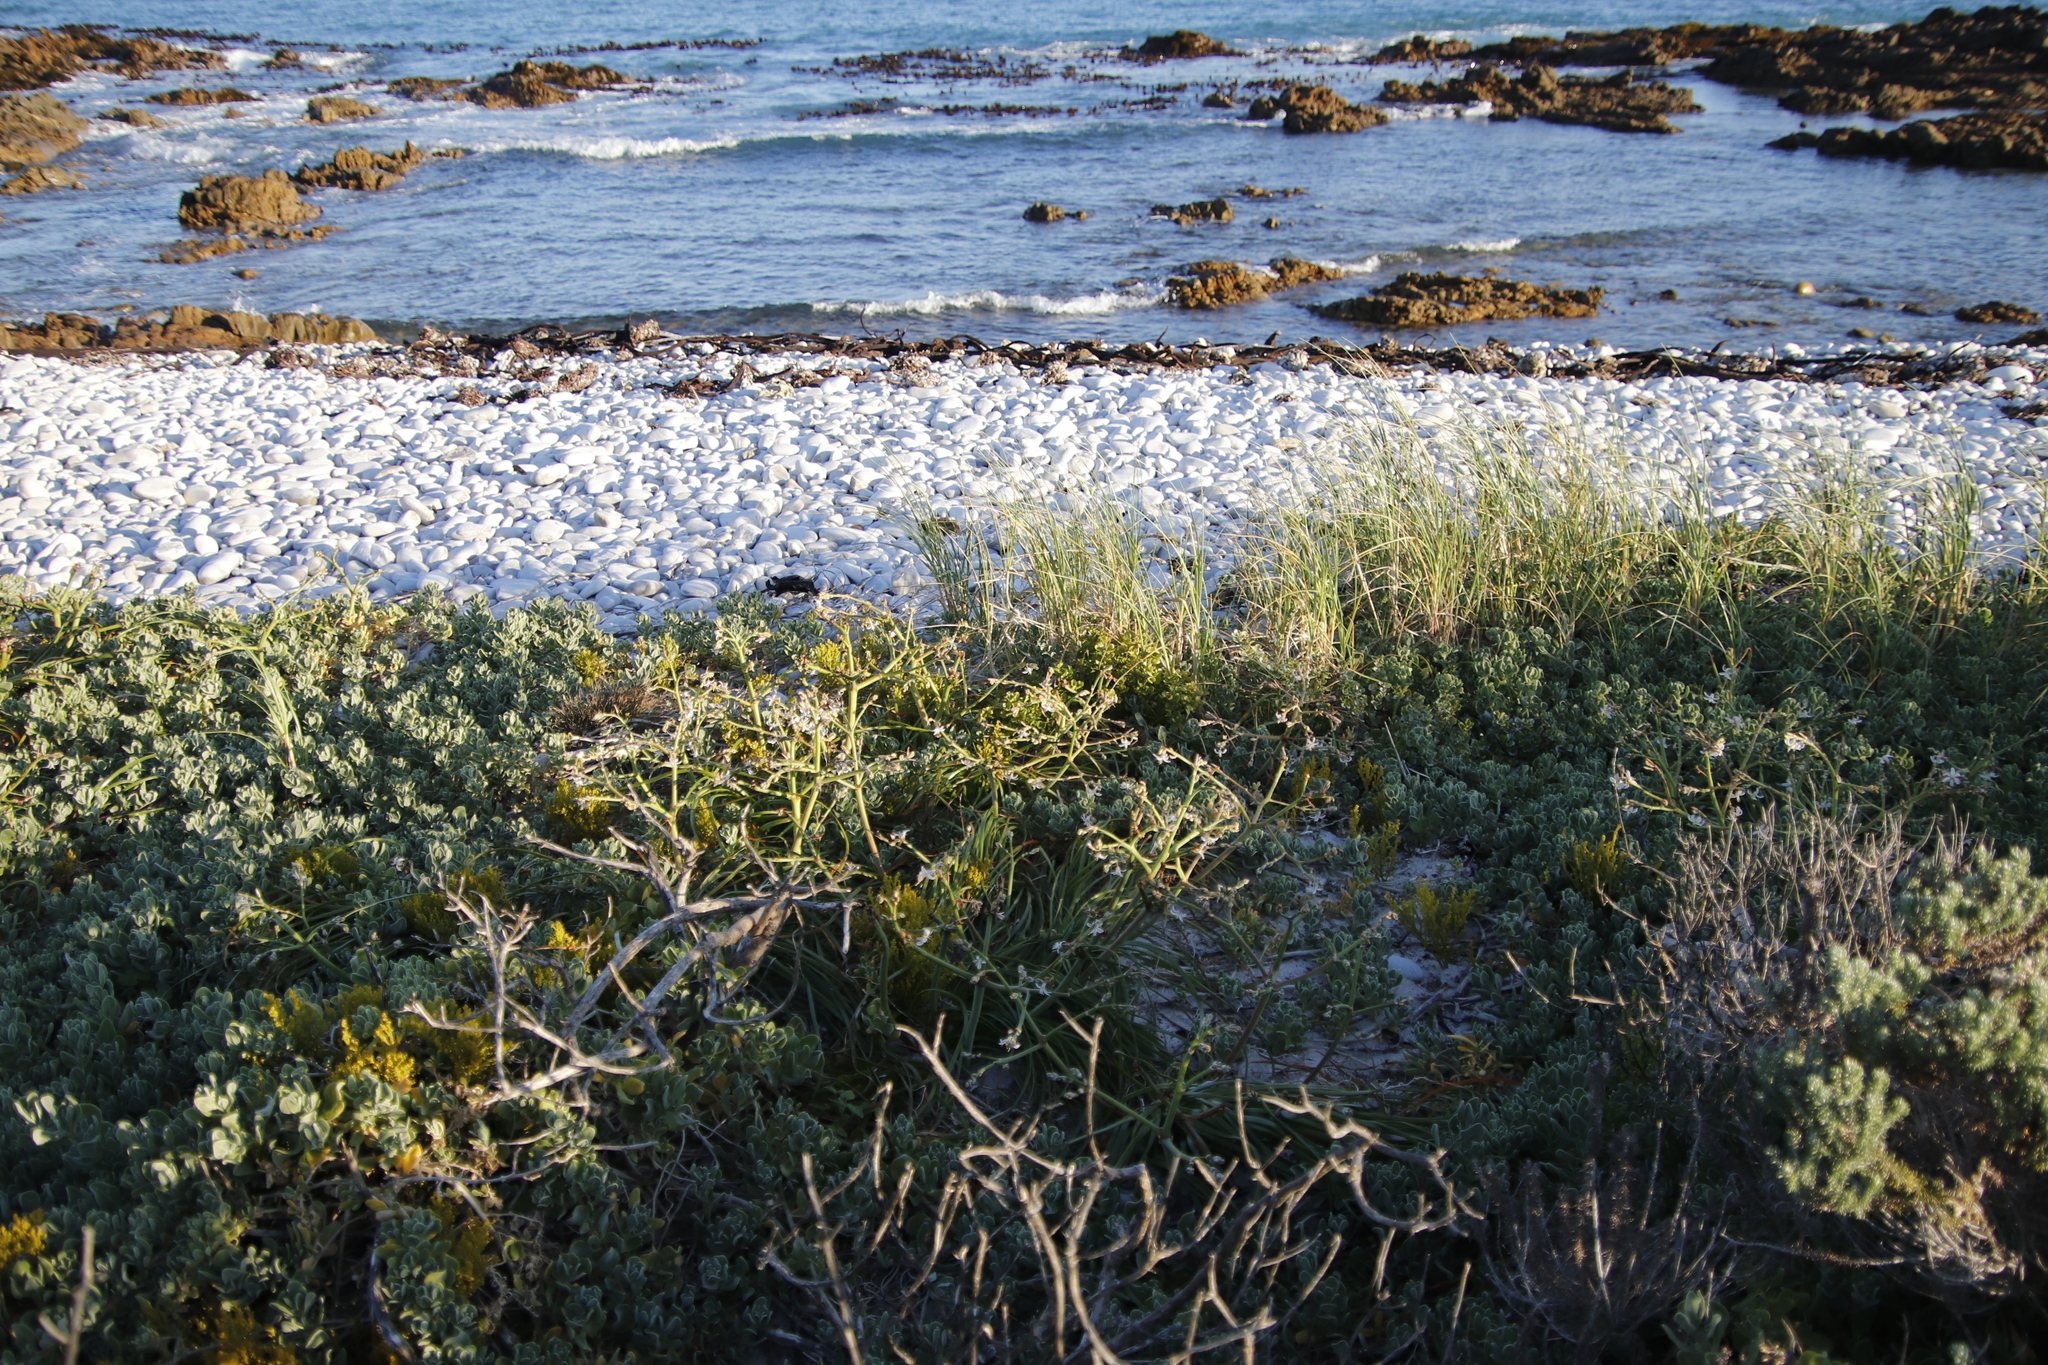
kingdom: Plantae
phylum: Tracheophyta
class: Liliopsida
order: Poales
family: Poaceae
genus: Thinopyrum
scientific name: Thinopyrum distichum
